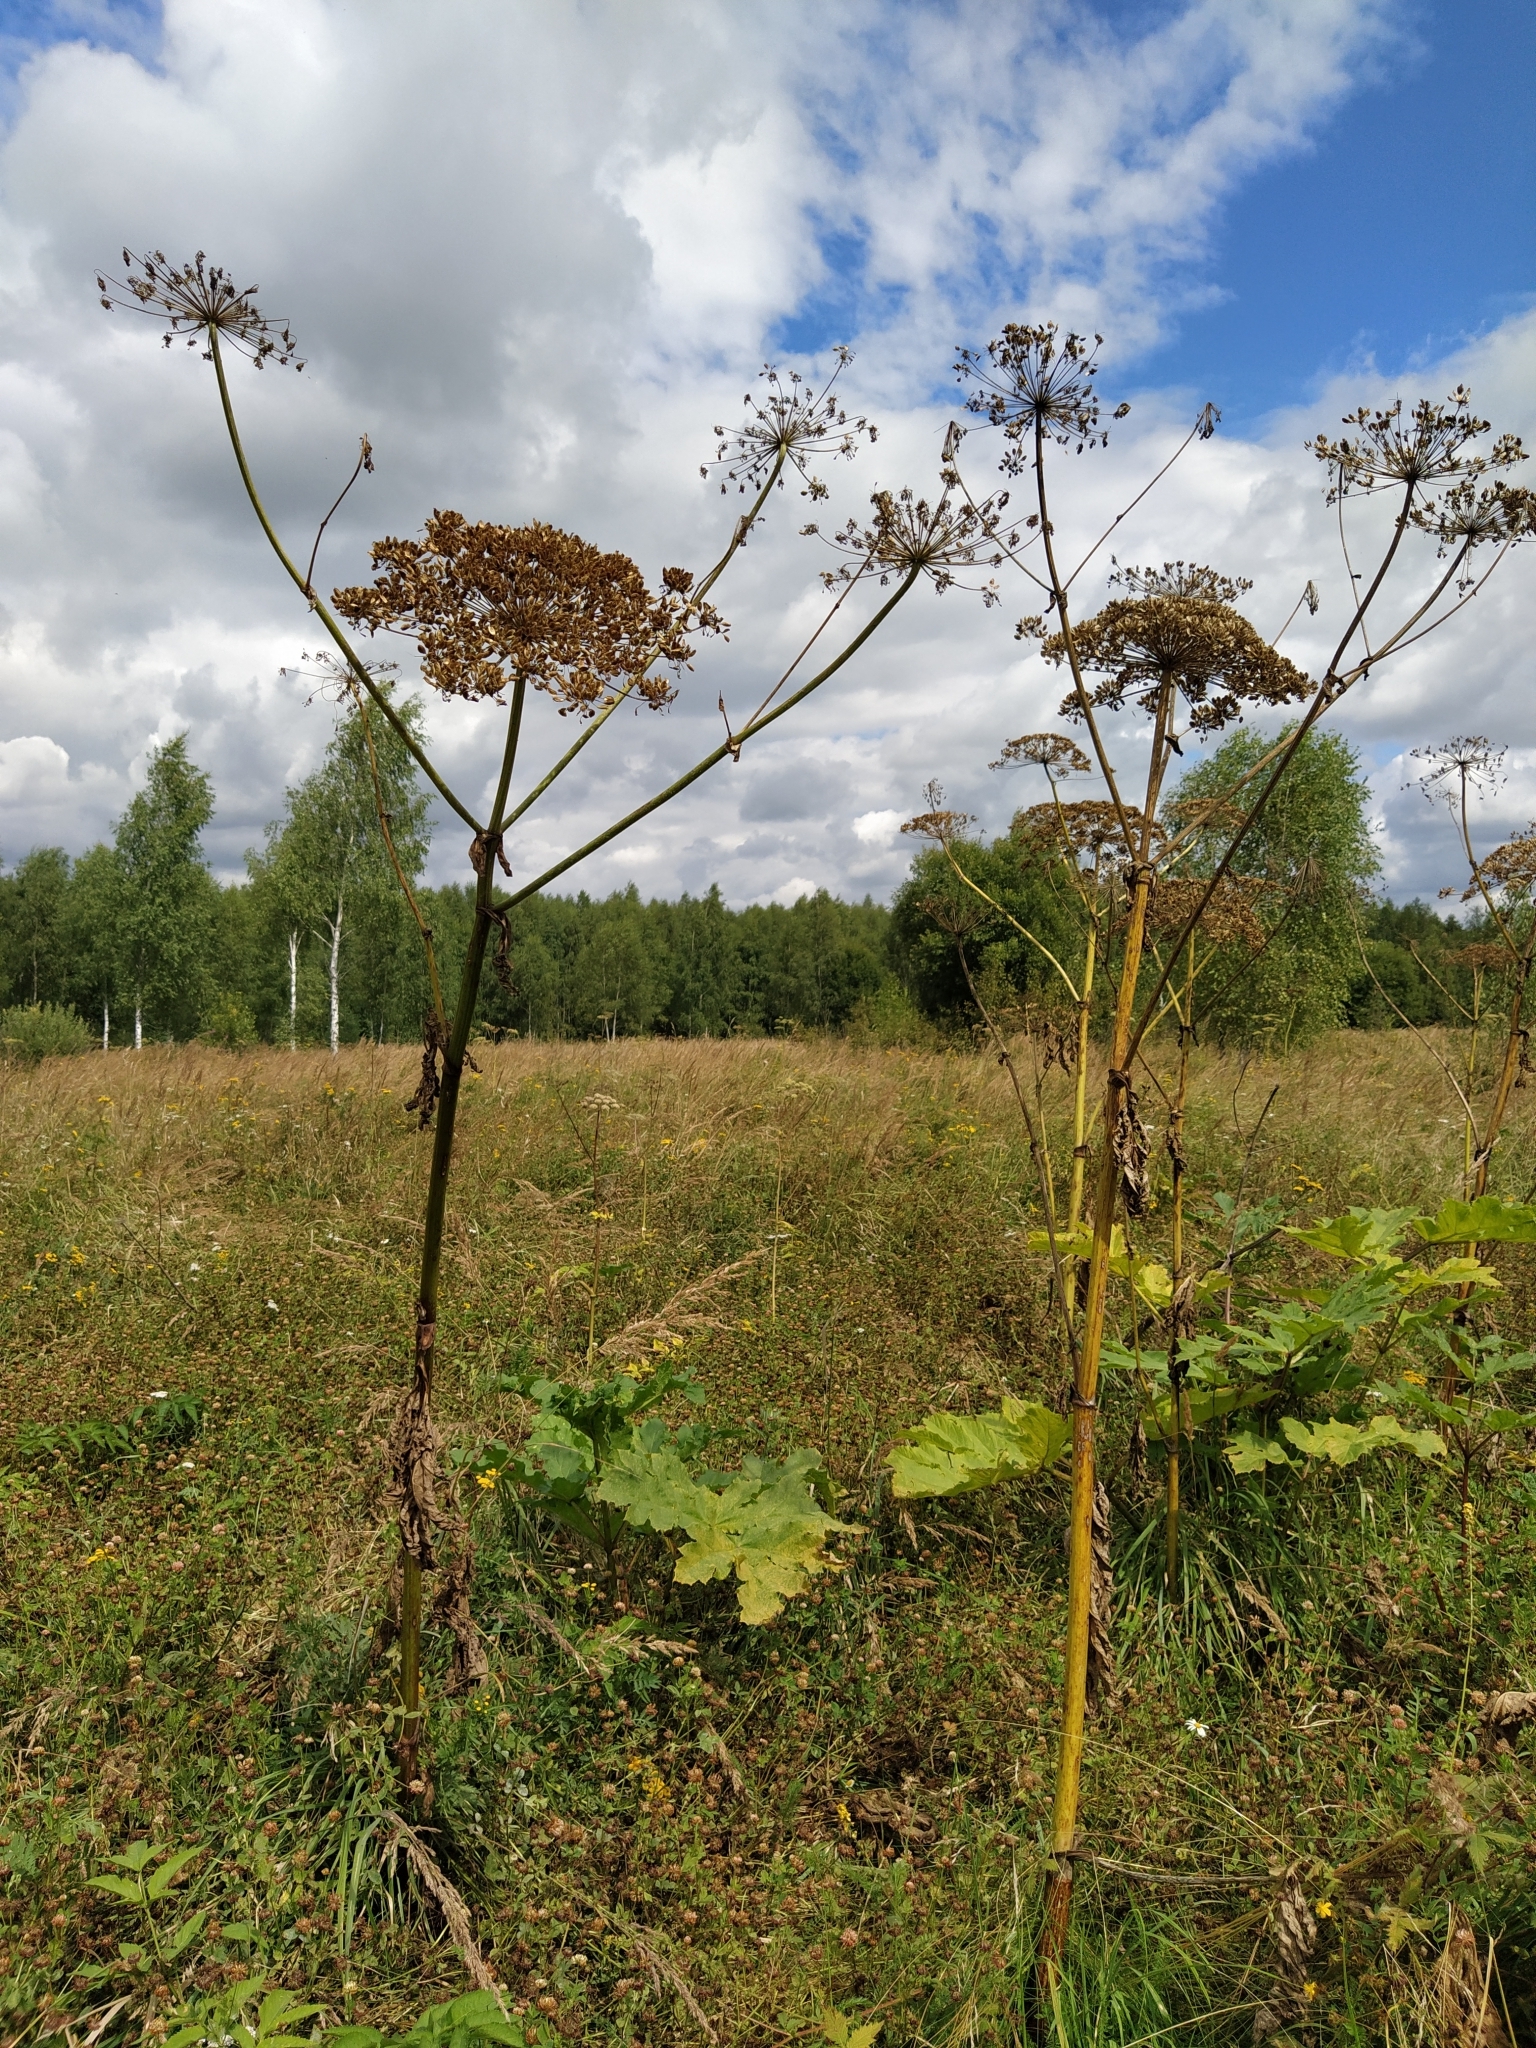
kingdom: Plantae
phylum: Tracheophyta
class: Magnoliopsida
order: Apiales
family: Apiaceae
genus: Heracleum
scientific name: Heracleum sosnowskyi
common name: Sosnowsky's hogweed
